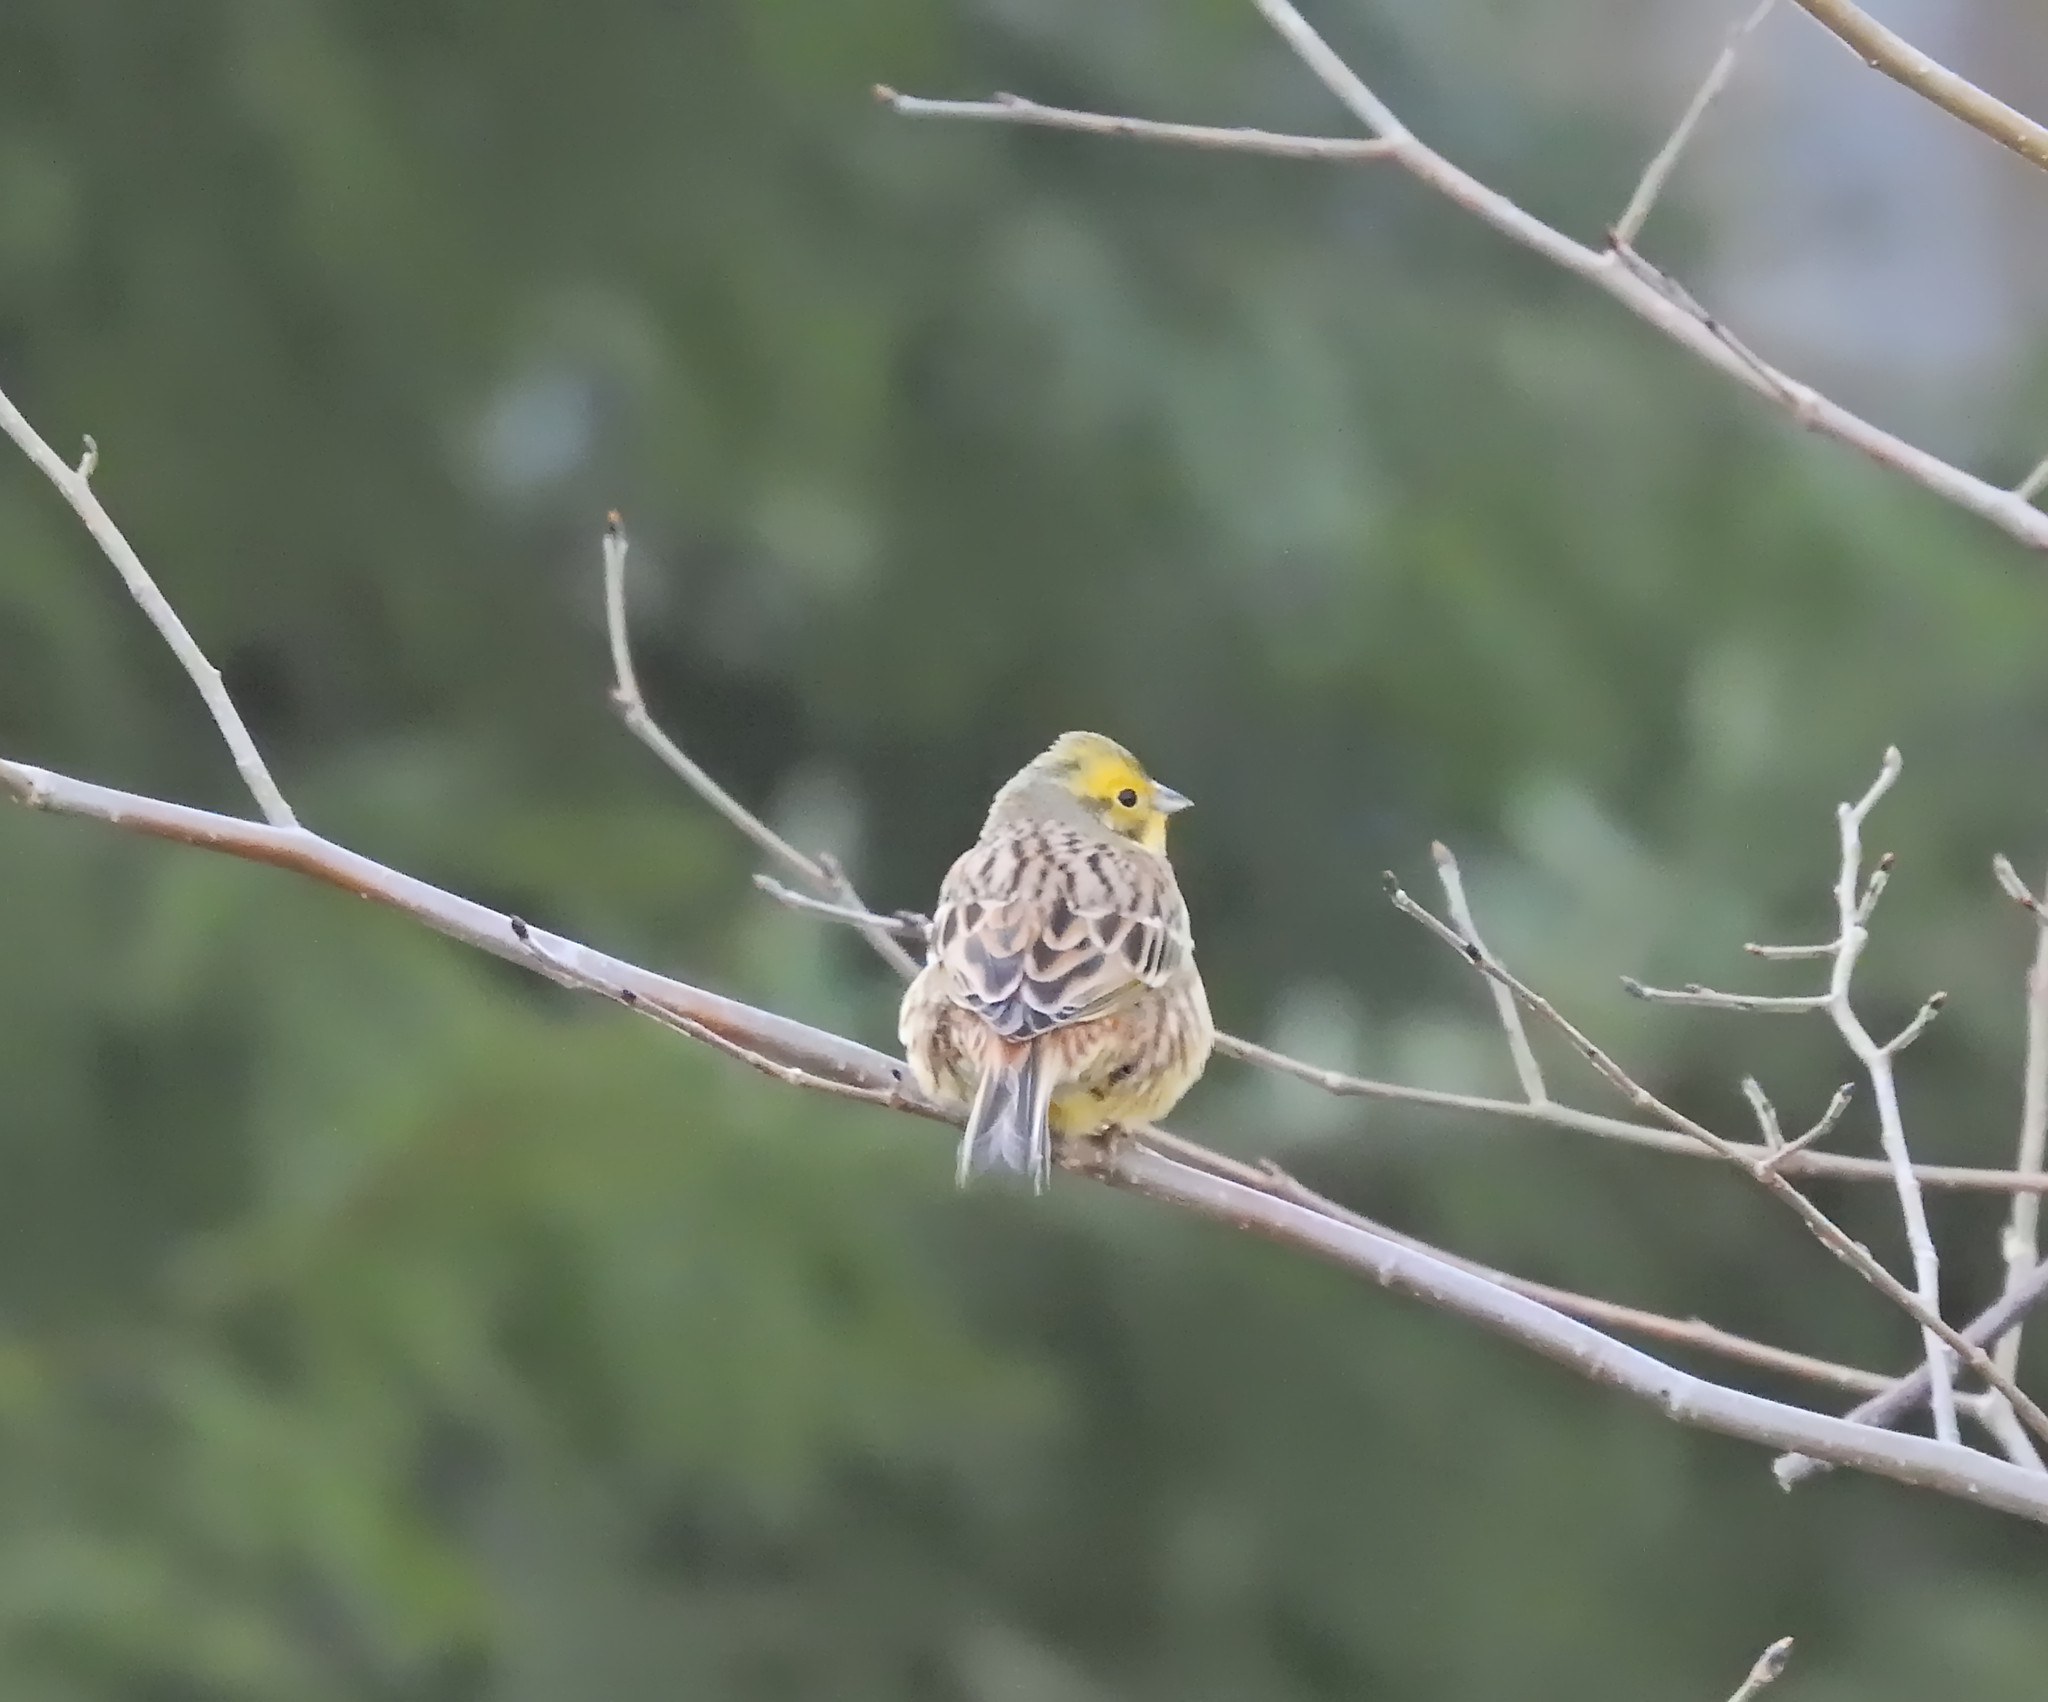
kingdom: Animalia
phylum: Chordata
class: Aves
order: Passeriformes
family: Emberizidae
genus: Emberiza
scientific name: Emberiza citrinella
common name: Yellowhammer
